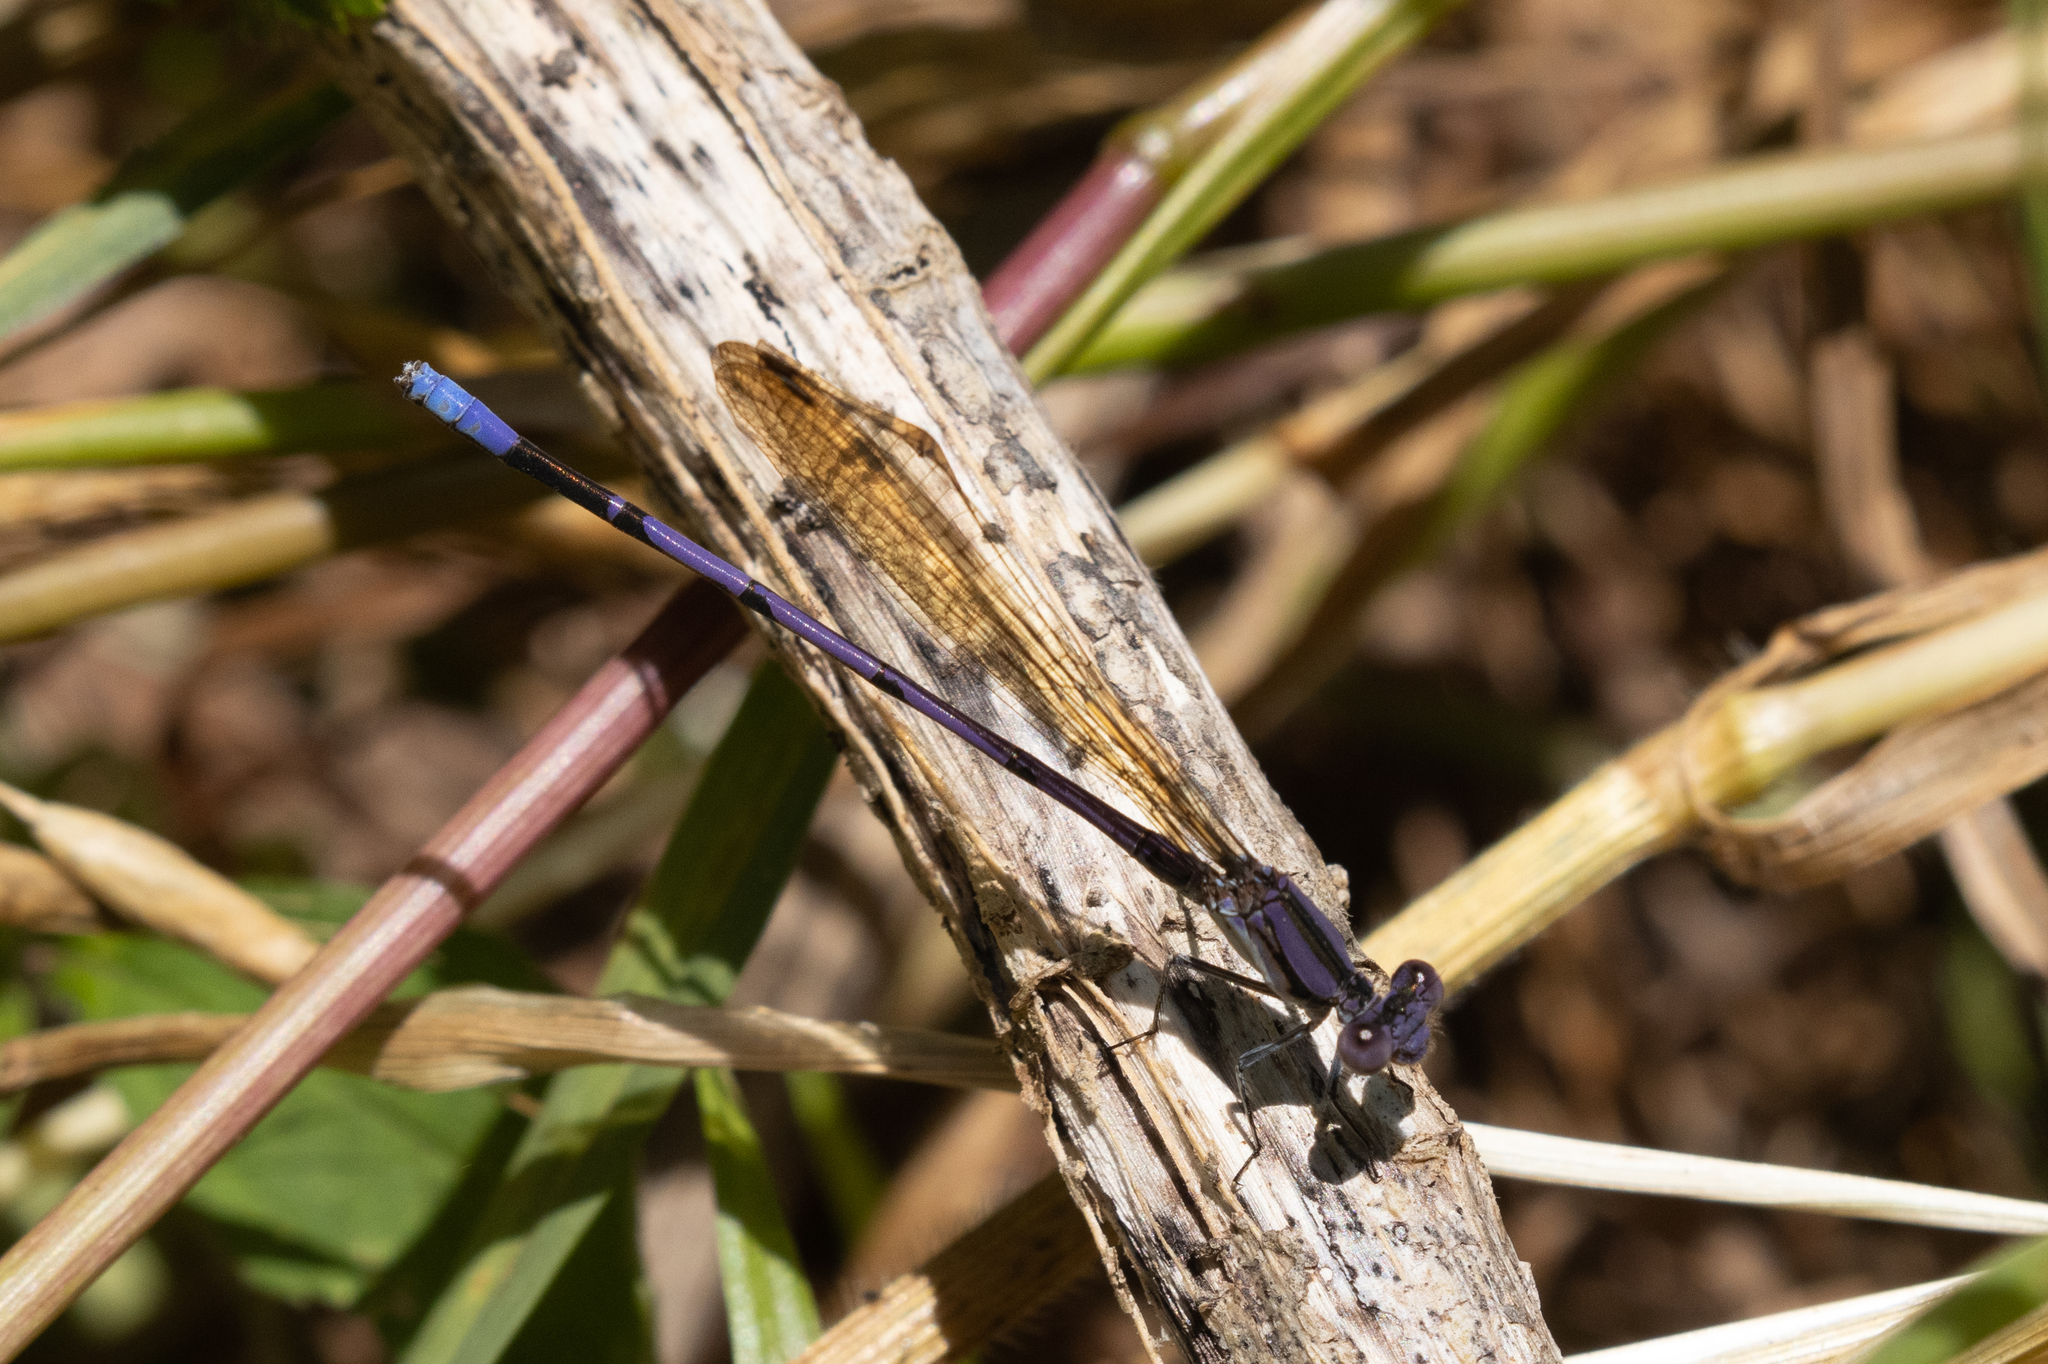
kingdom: Animalia
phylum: Arthropoda
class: Insecta
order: Odonata
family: Coenagrionidae
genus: Argia
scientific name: Argia fumipennis
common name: Variable dancer
